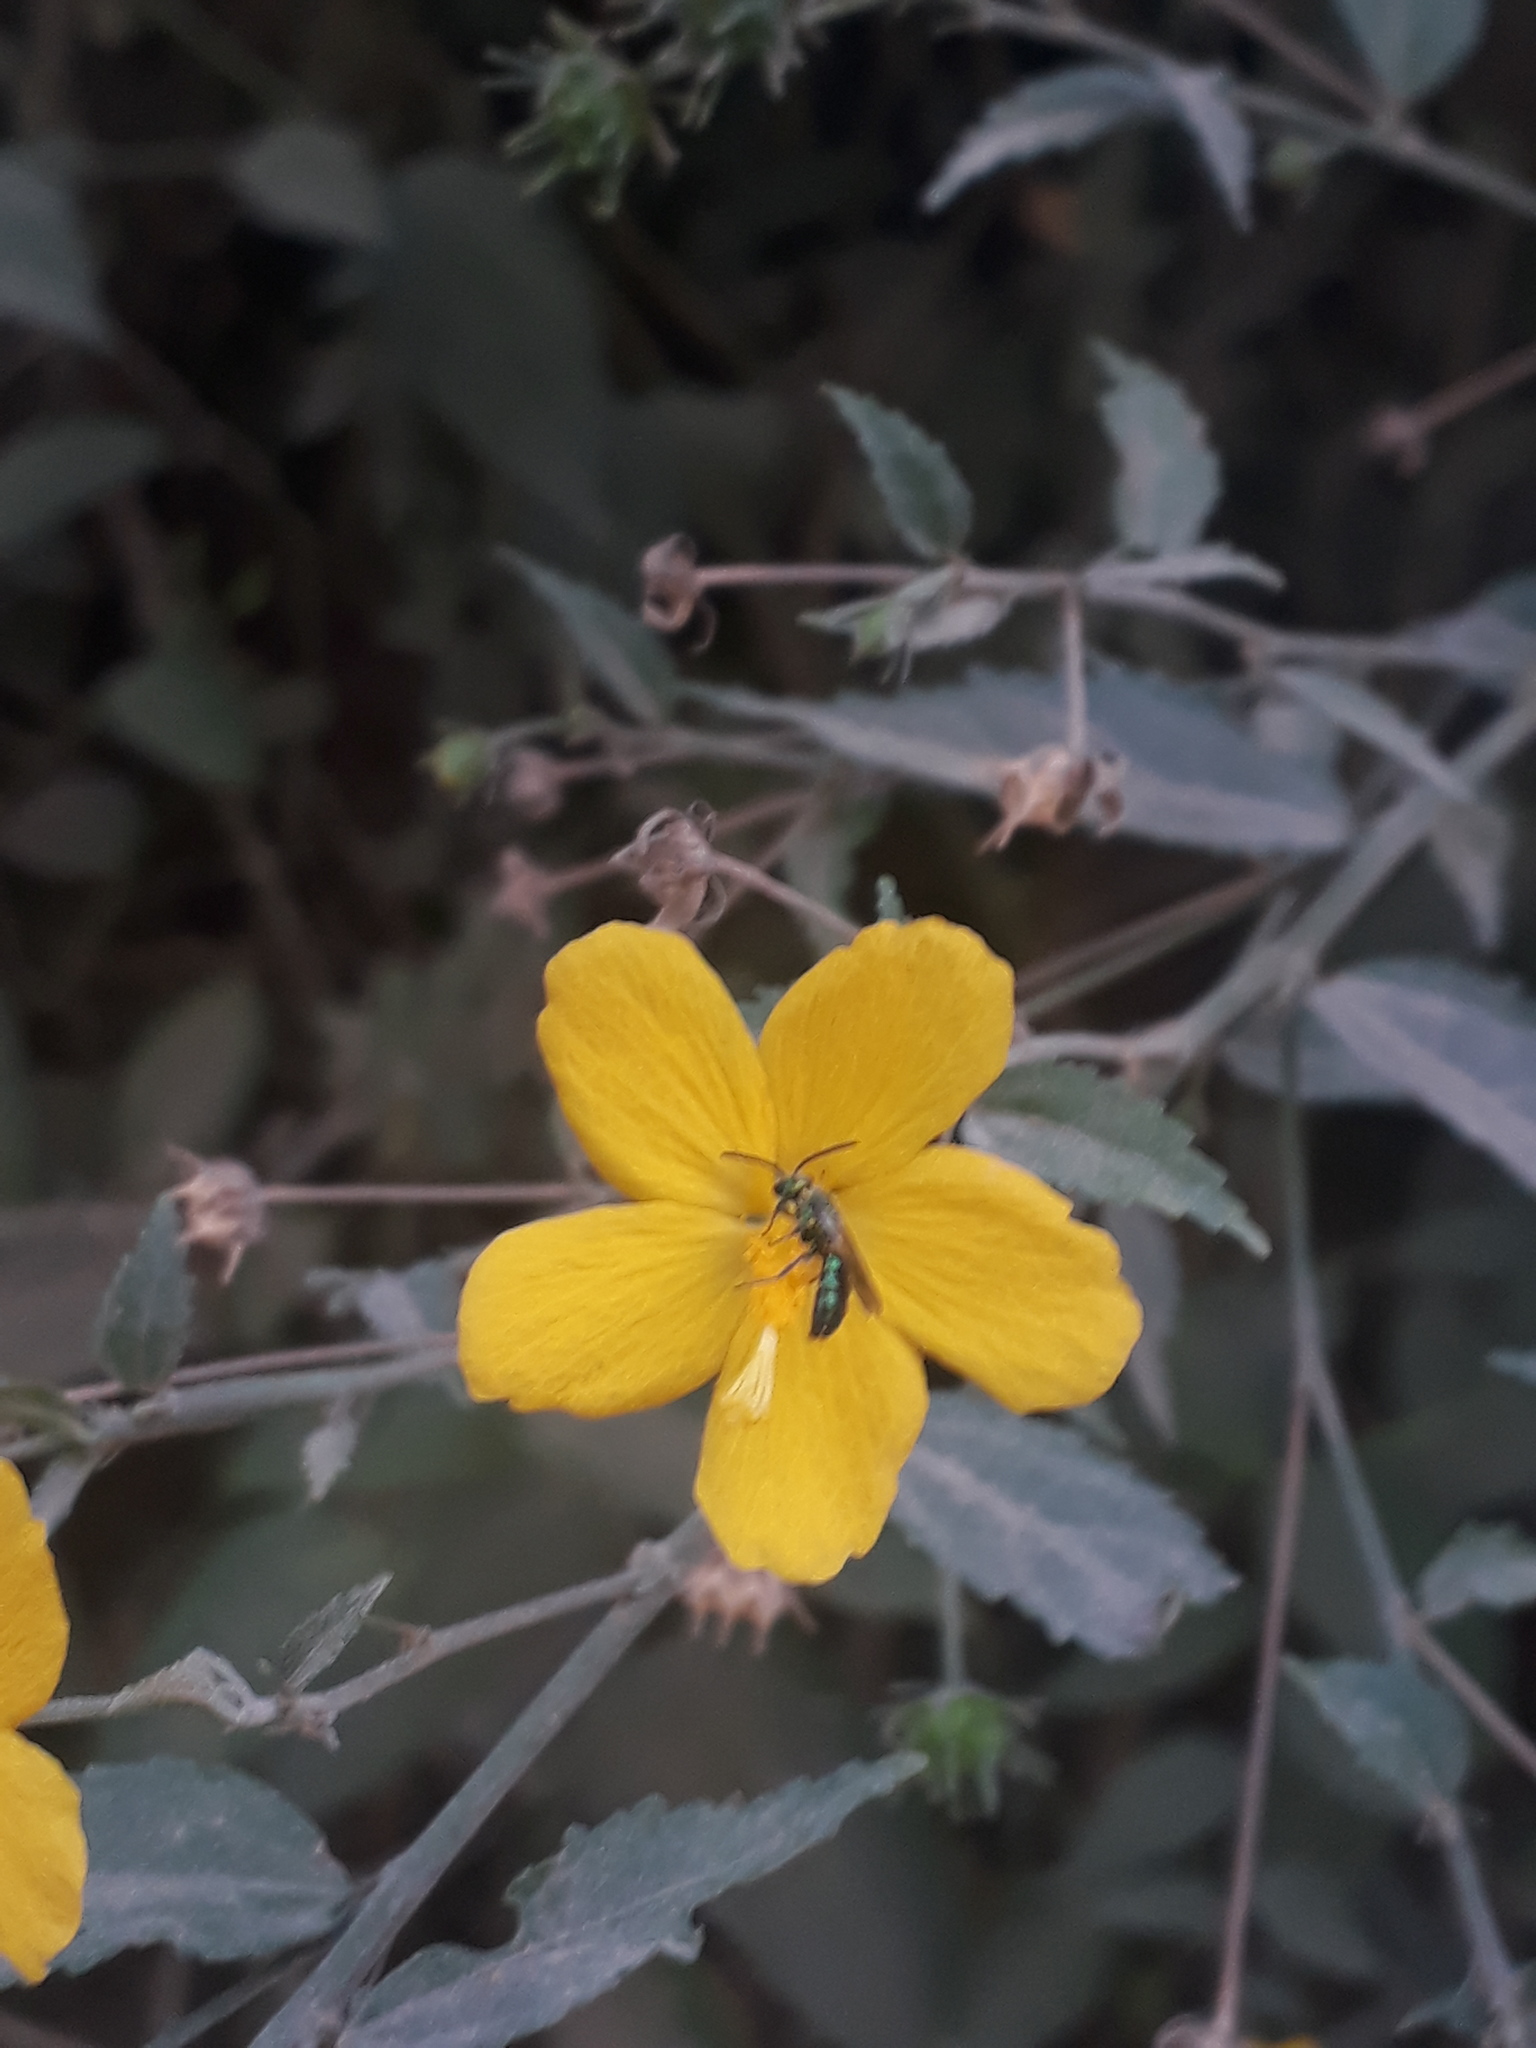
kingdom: Plantae
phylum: Tracheophyta
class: Magnoliopsida
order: Malvales
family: Malvaceae
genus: Pavonia
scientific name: Pavonia sepium
